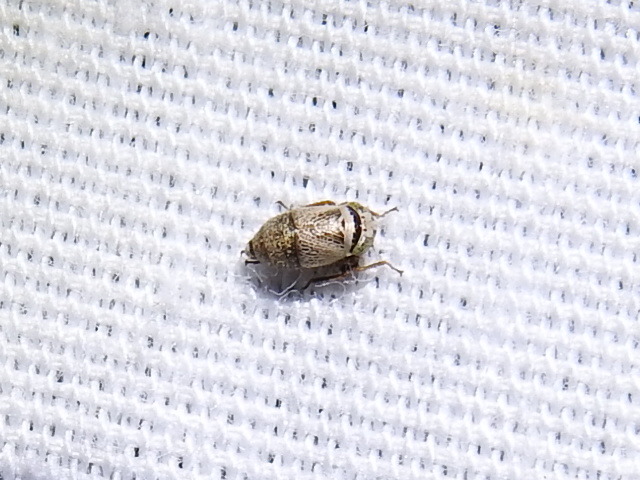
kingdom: Animalia
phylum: Arthropoda
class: Insecta
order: Hemiptera
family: Cicadellidae
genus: Driotura
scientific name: Driotura robusta
